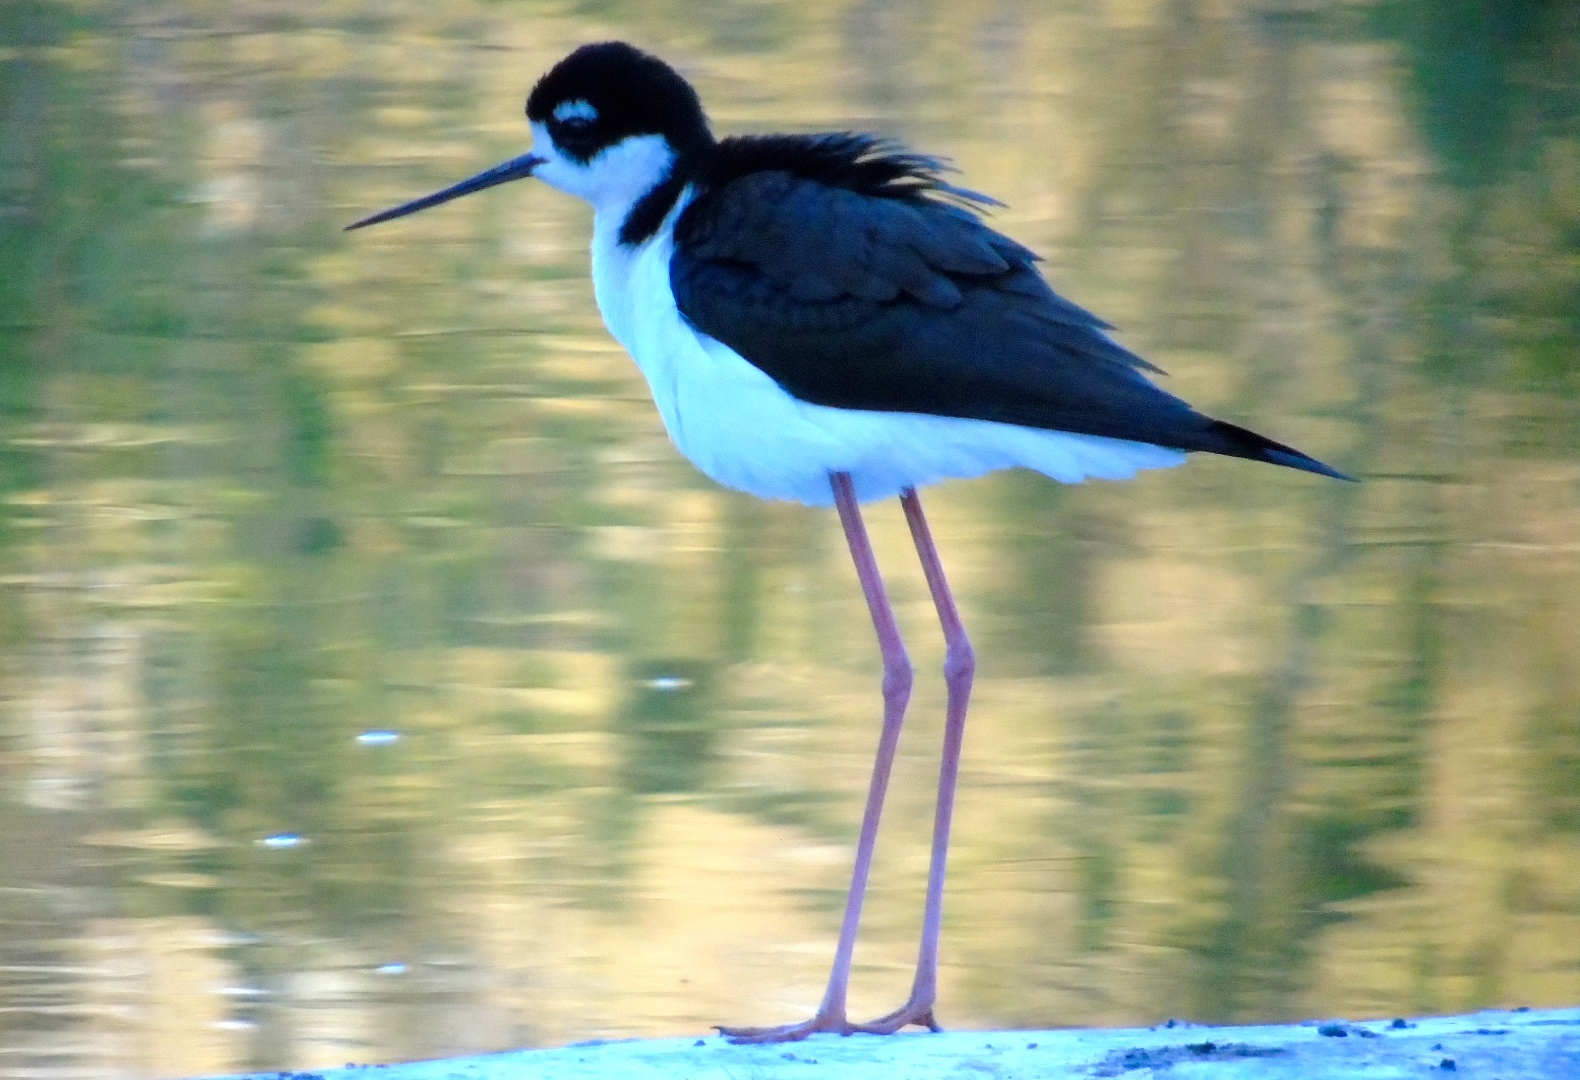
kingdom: Animalia
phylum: Chordata
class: Aves
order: Charadriiformes
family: Recurvirostridae
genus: Himantopus
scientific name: Himantopus mexicanus
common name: Black-necked stilt
